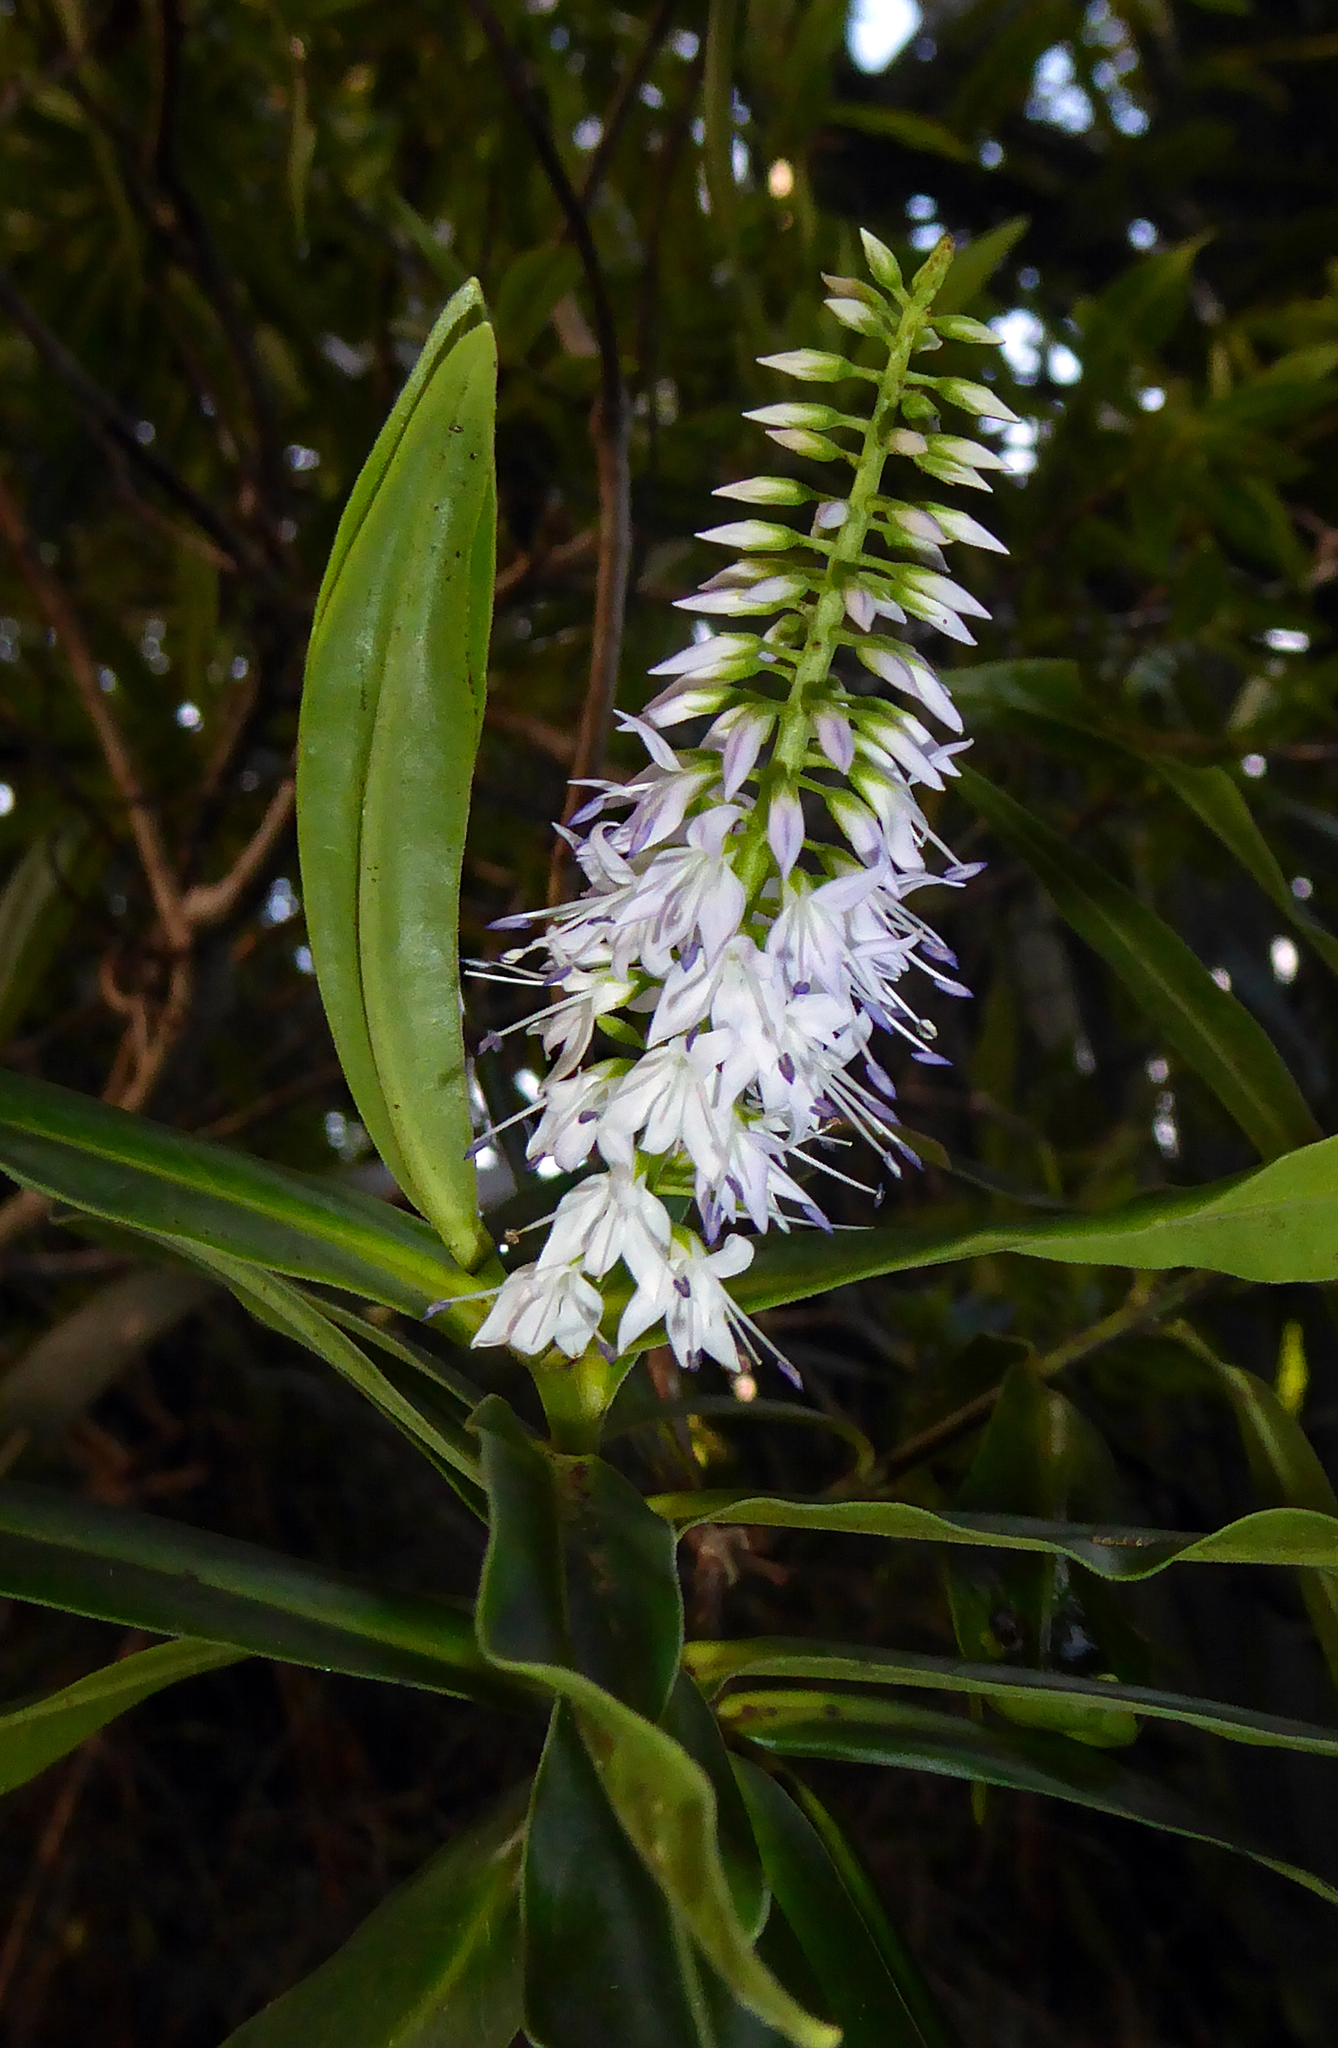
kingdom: Plantae
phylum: Tracheophyta
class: Magnoliopsida
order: Lamiales
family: Plantaginaceae
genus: Veronica
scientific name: Veronica flavida
